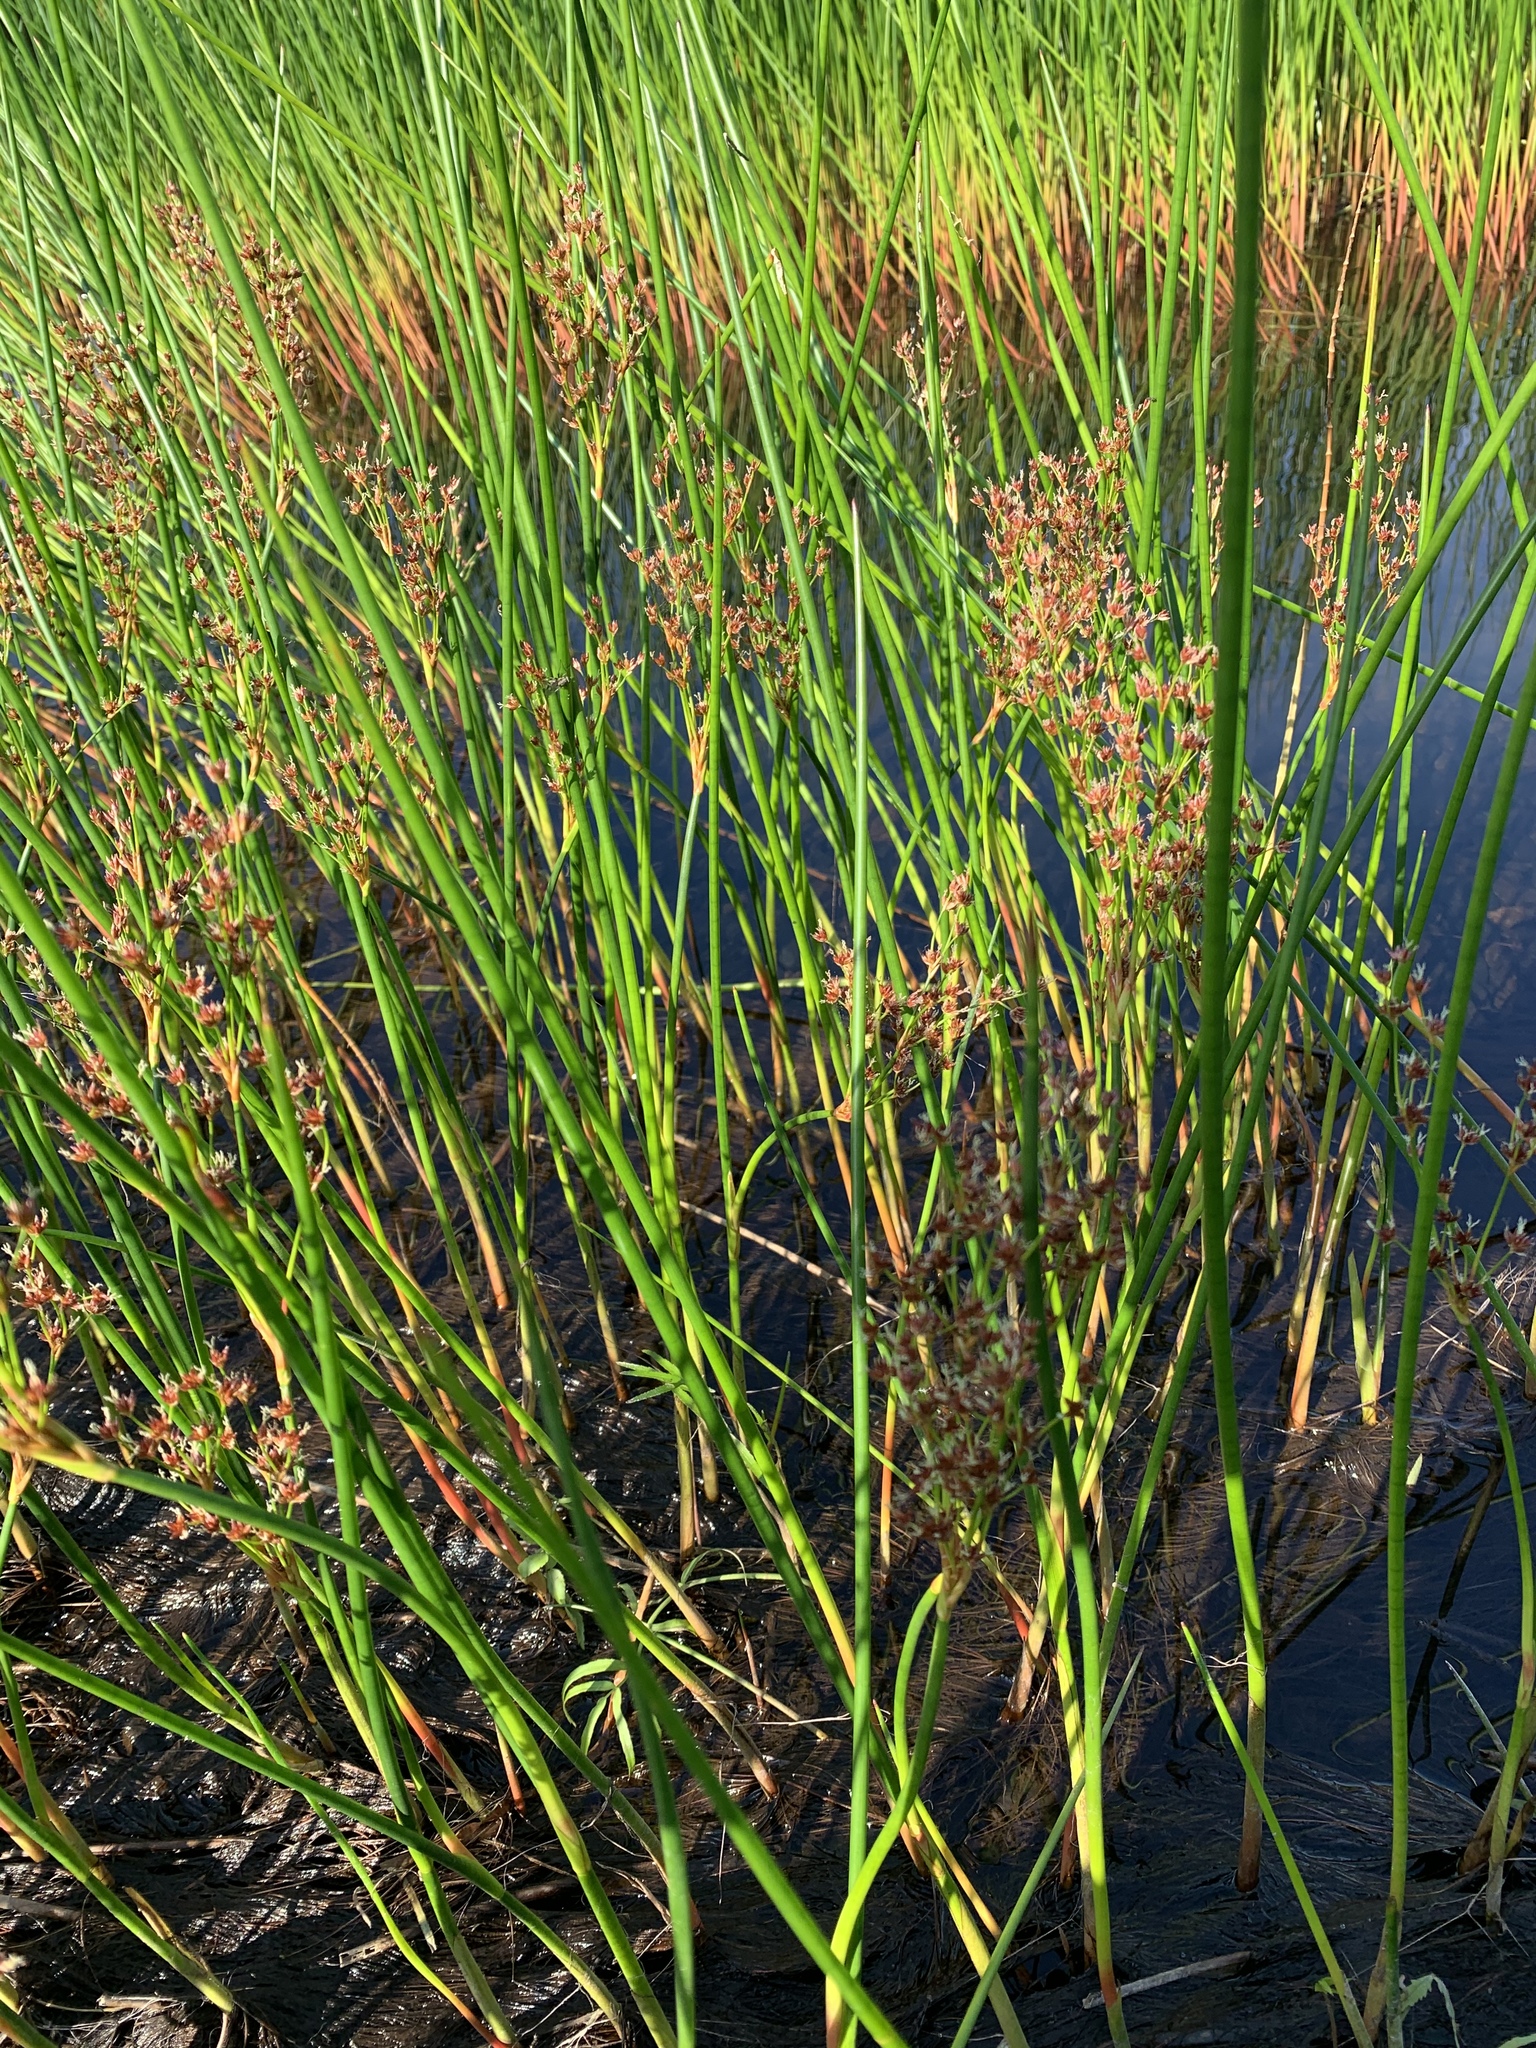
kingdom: Plantae
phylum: Tracheophyta
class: Liliopsida
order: Poales
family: Juncaceae
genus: Juncus
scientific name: Juncus militaris
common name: Bayonet rush
